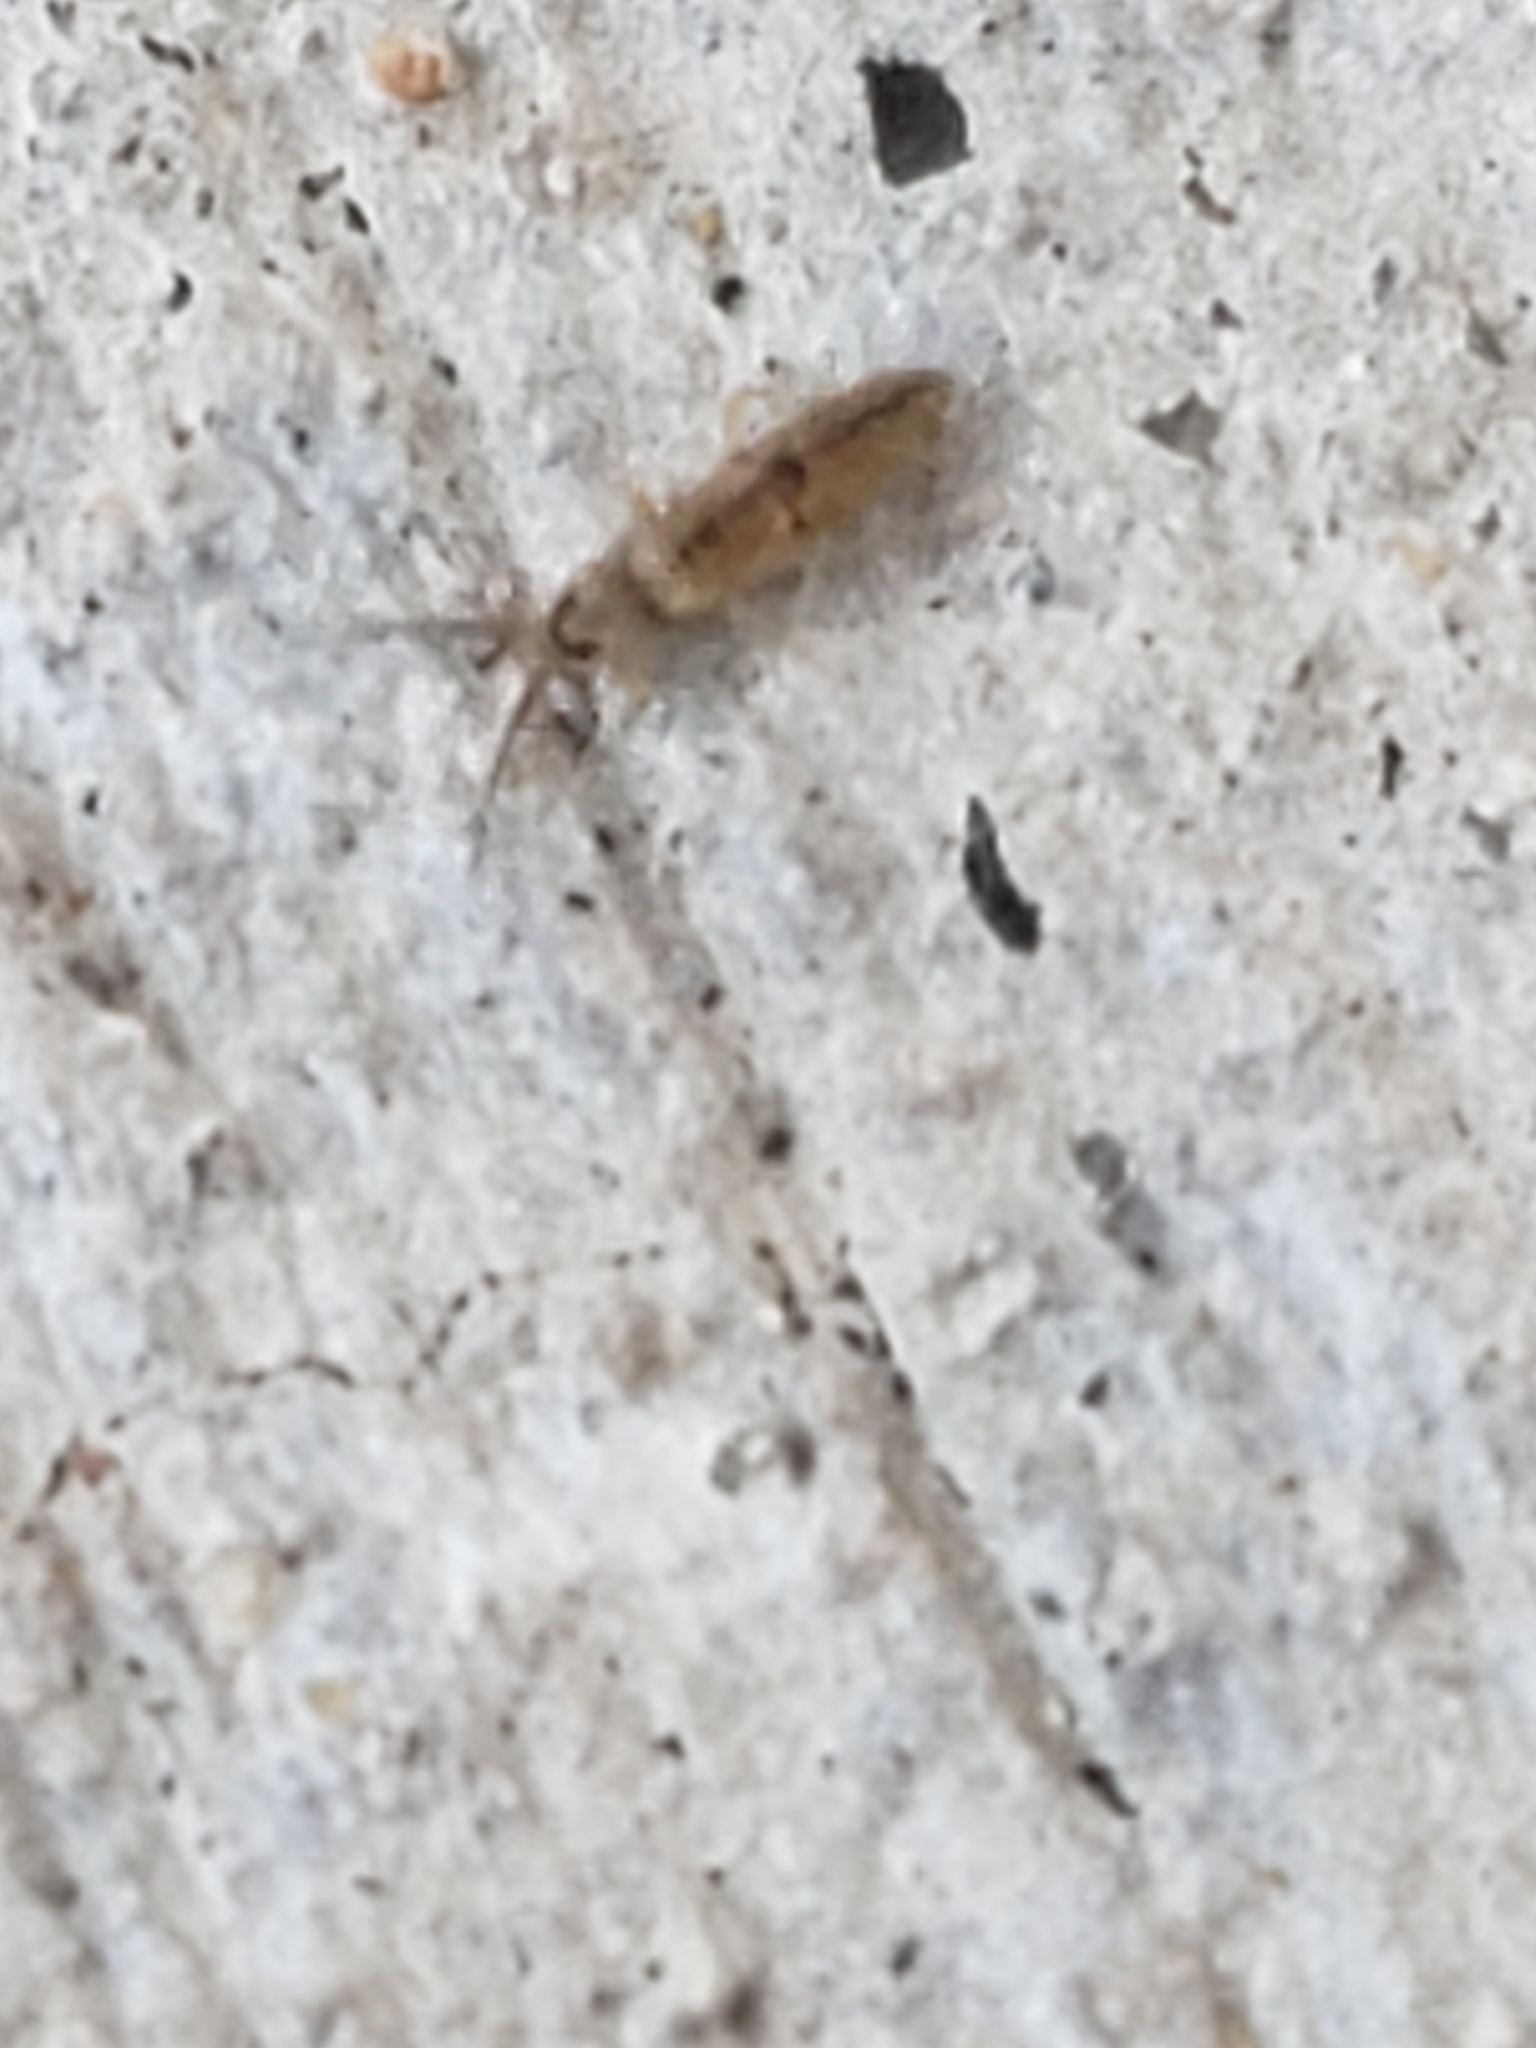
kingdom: Animalia
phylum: Arthropoda
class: Collembola
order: Entomobryomorpha
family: Entomobryidae
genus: Entomobrya
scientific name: Entomobrya unostrigata
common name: Springtail
